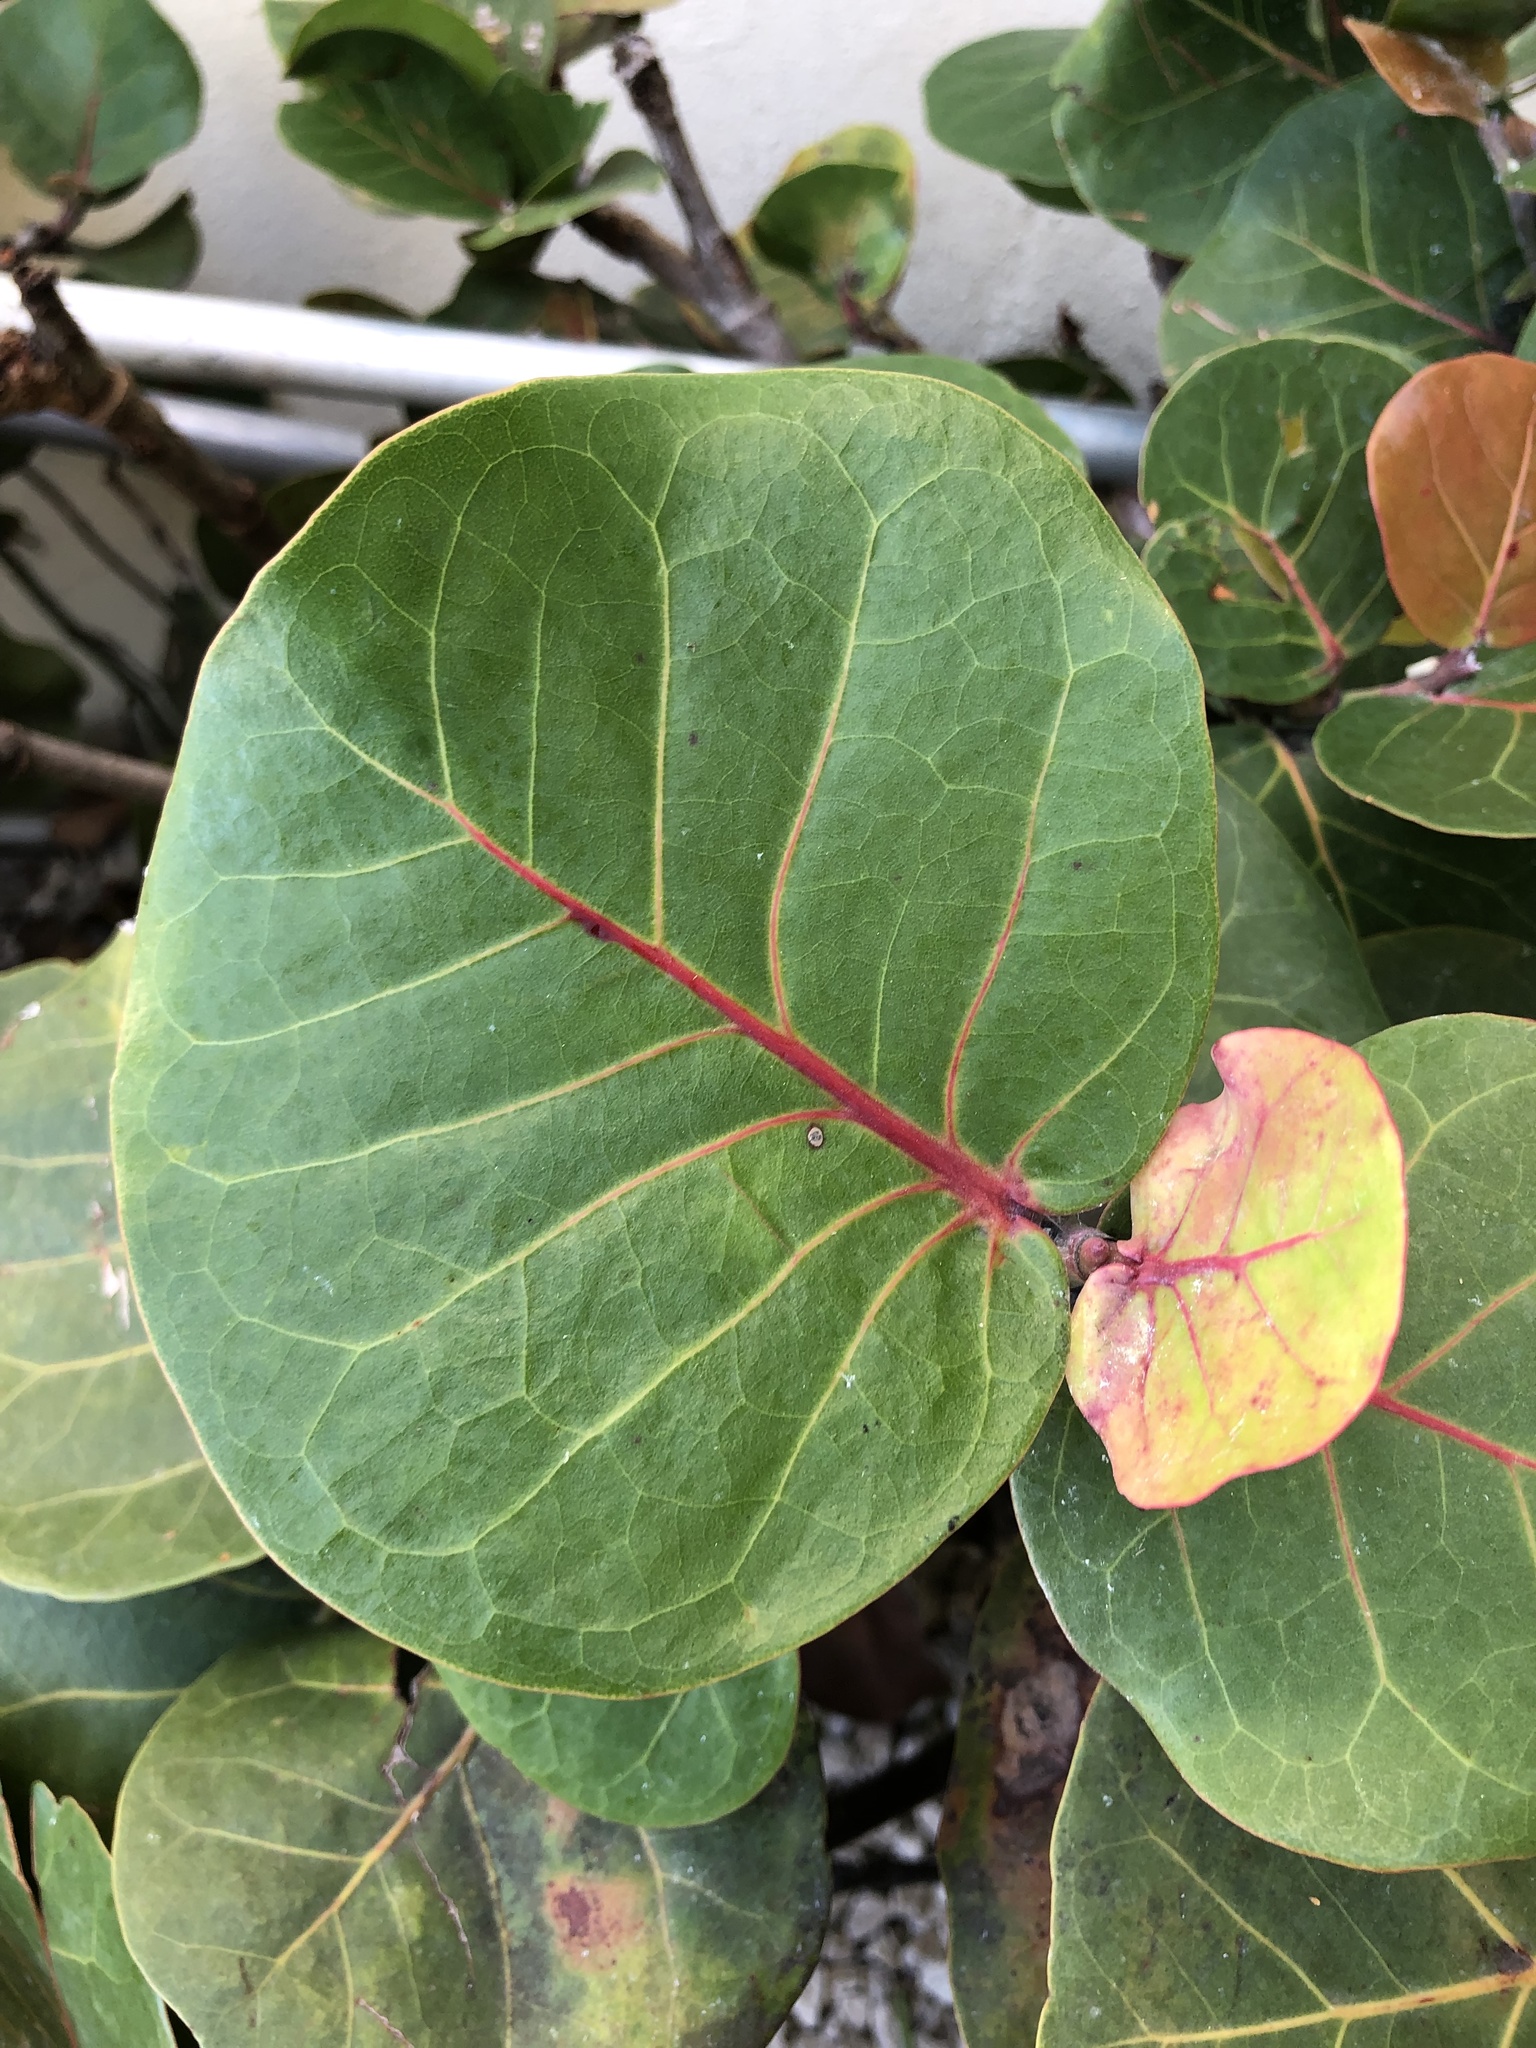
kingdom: Plantae
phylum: Tracheophyta
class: Magnoliopsida
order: Caryophyllales
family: Polygonaceae
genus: Coccoloba
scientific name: Coccoloba uvifera
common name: Seagrape
